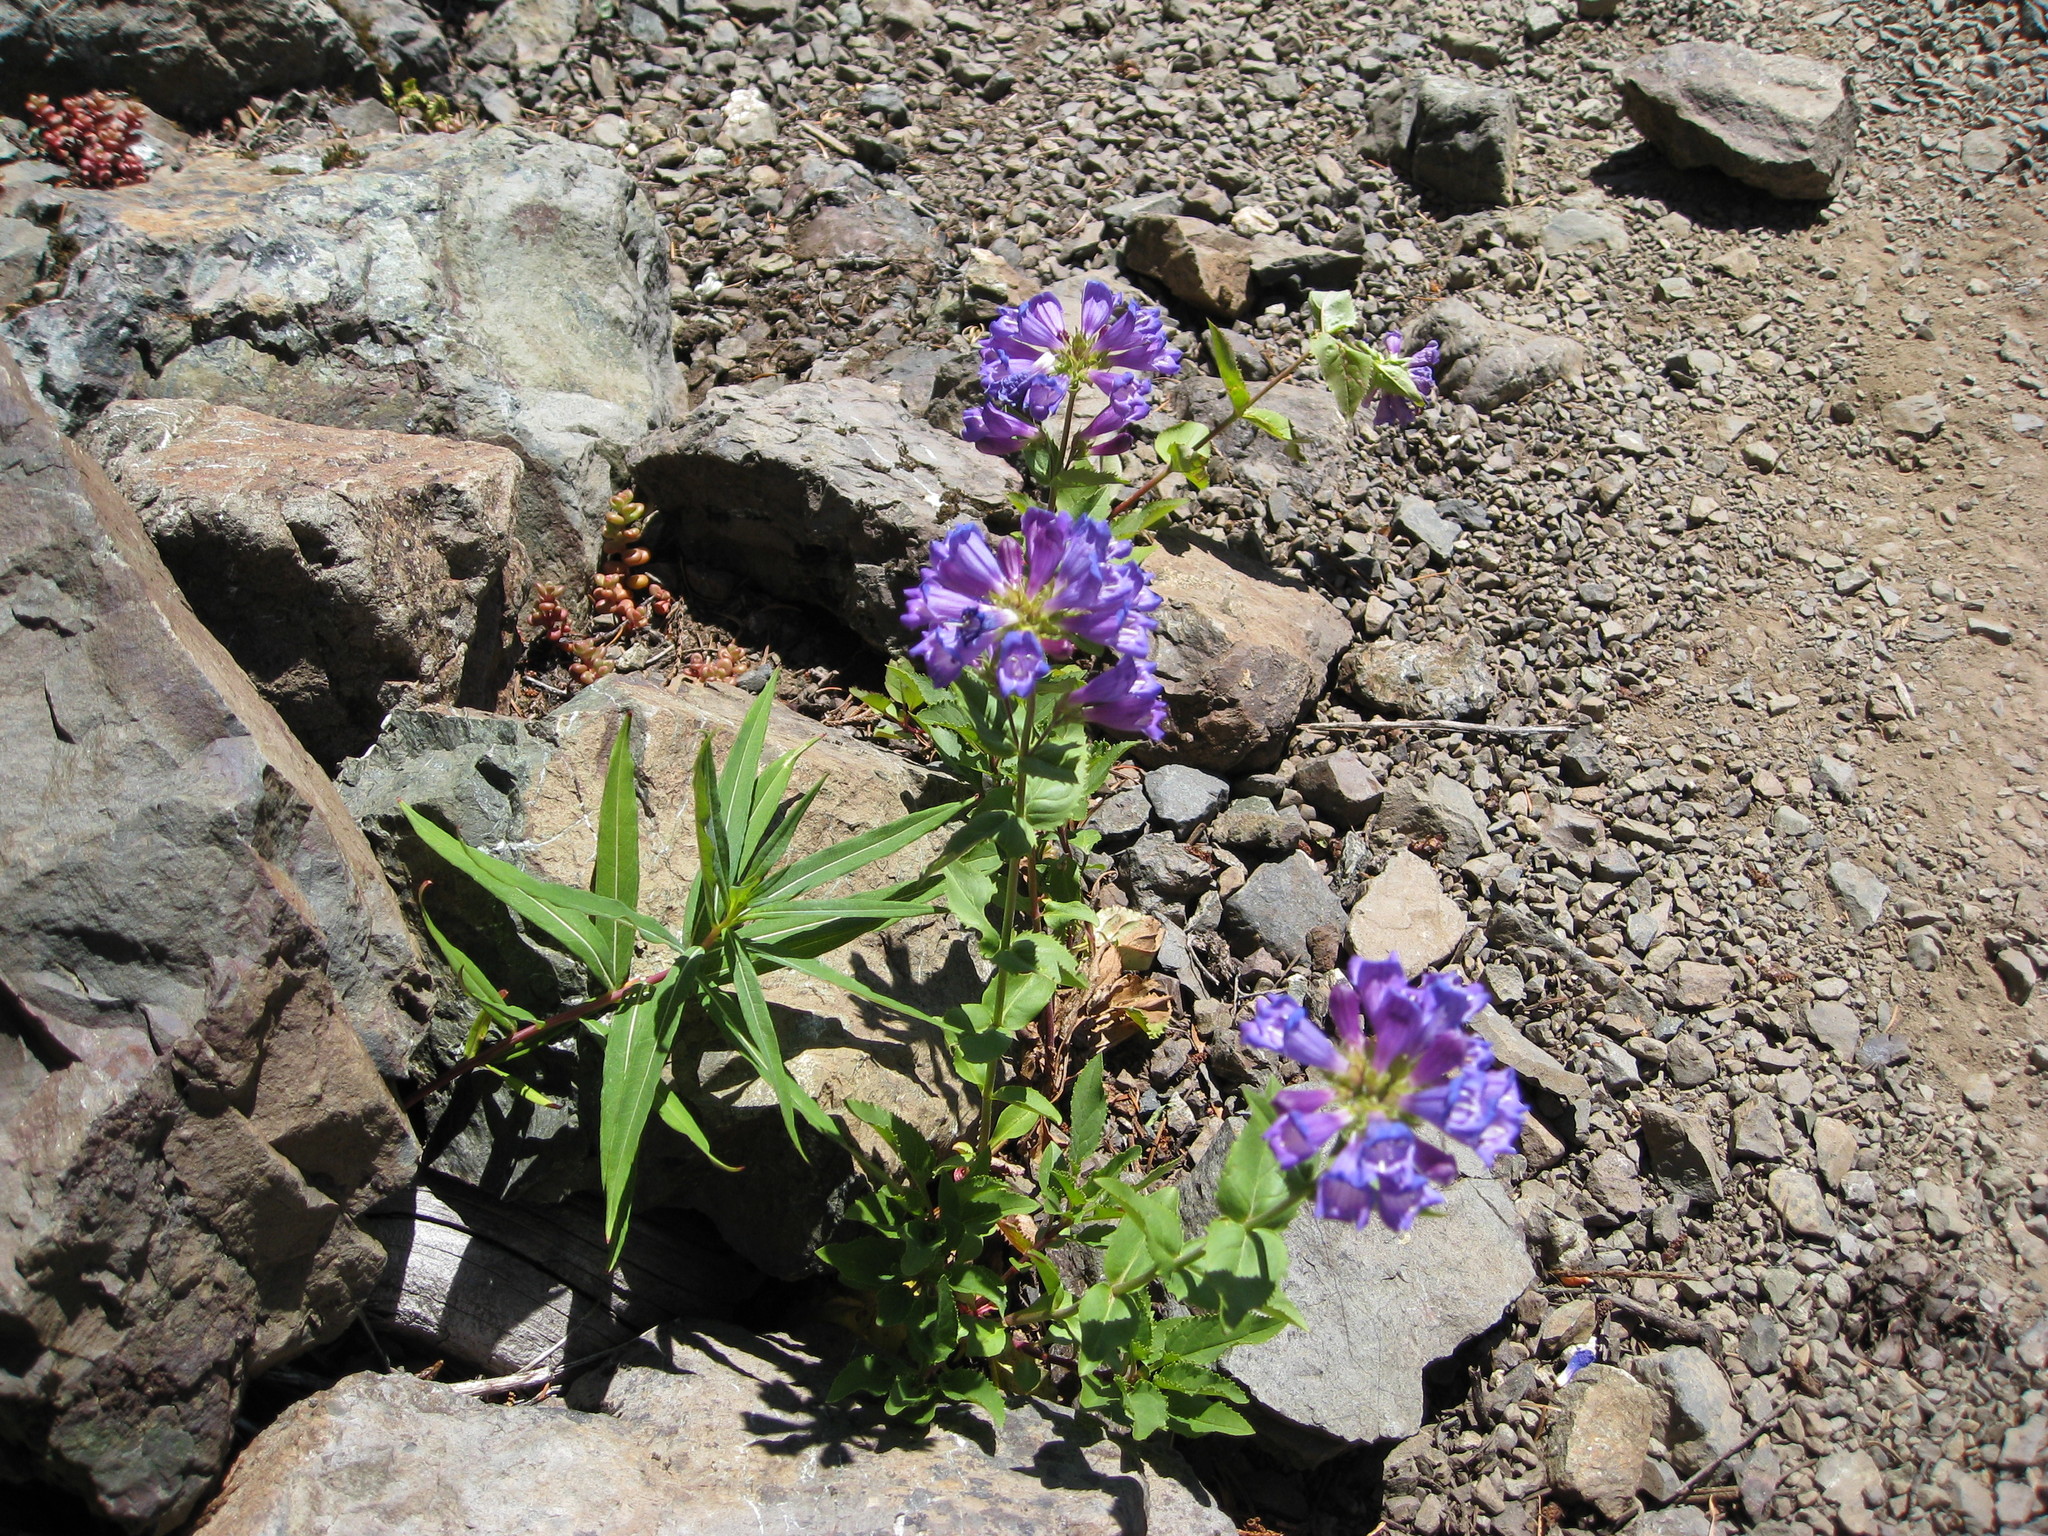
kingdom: Plantae
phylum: Tracheophyta
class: Magnoliopsida
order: Lamiales
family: Plantaginaceae
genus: Penstemon
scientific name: Penstemon serrulatus
